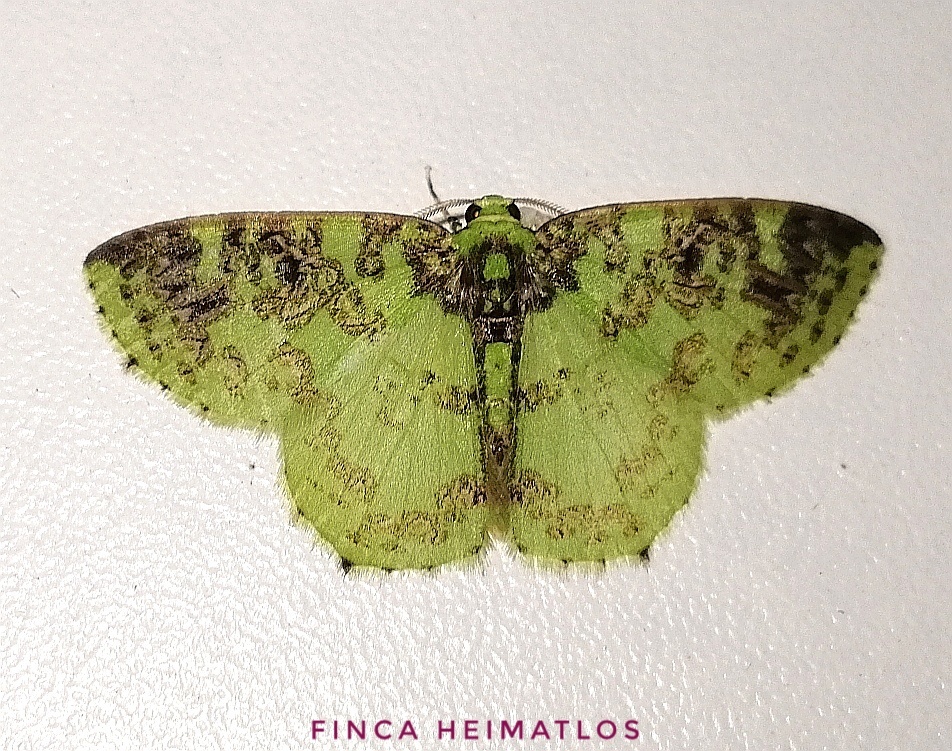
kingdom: Animalia
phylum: Arthropoda
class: Insecta
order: Lepidoptera
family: Geometridae
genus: Nemoria
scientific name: Nemoria scriptaria
